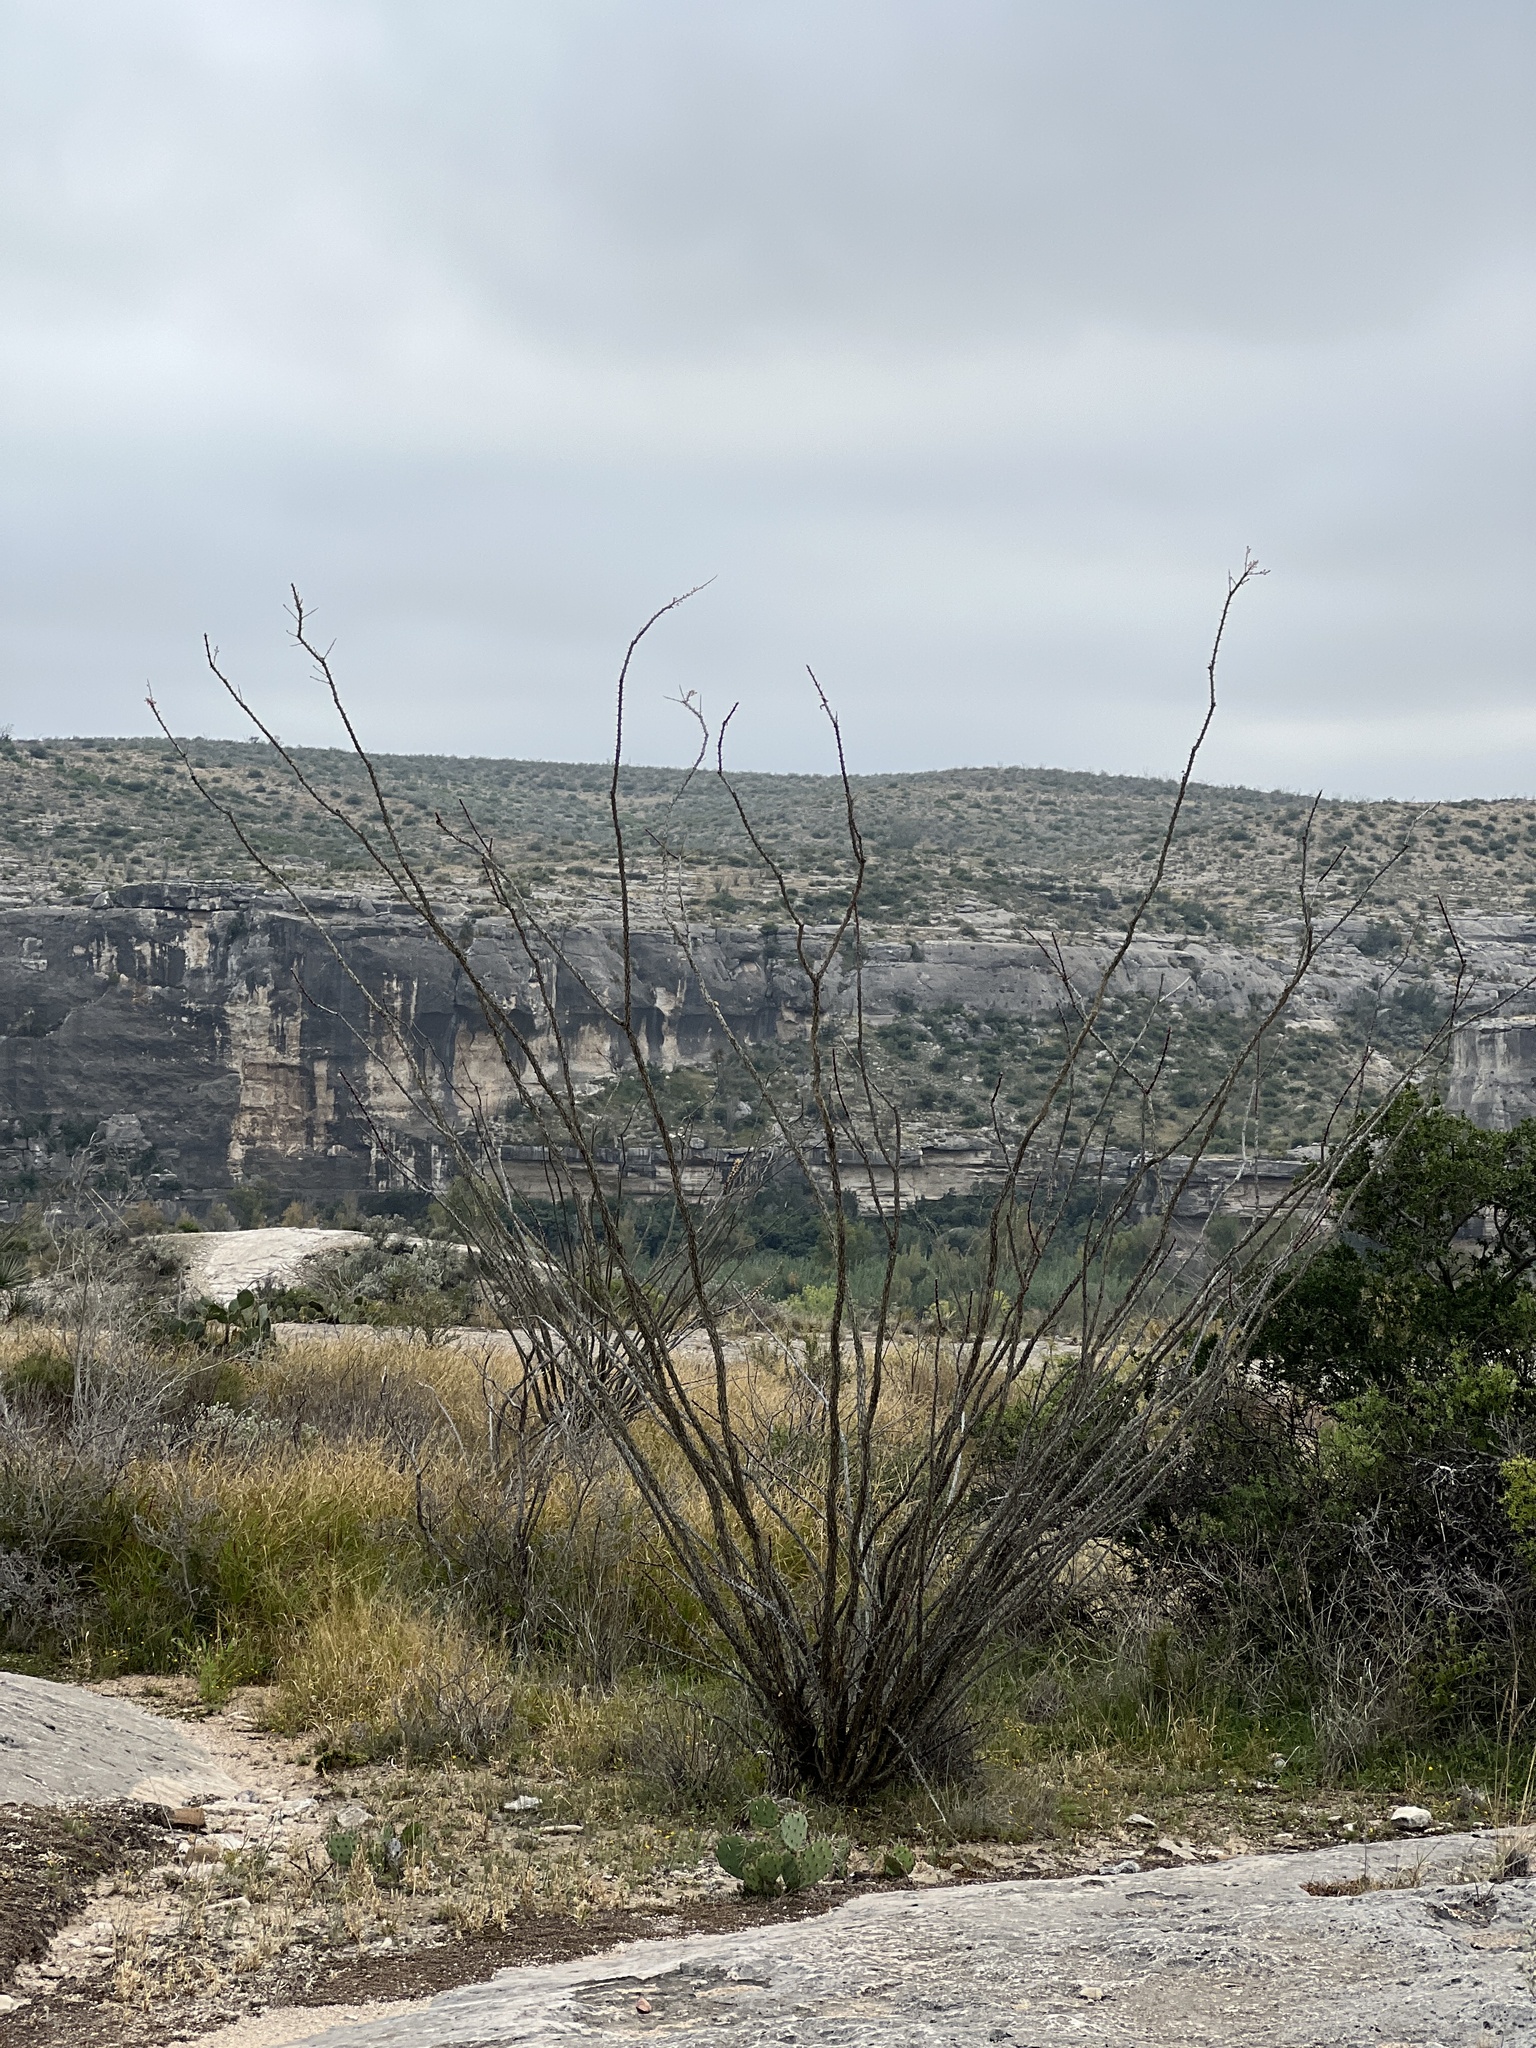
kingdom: Plantae
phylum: Tracheophyta
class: Magnoliopsida
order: Ericales
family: Fouquieriaceae
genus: Fouquieria
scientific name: Fouquieria splendens
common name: Vine-cactus
